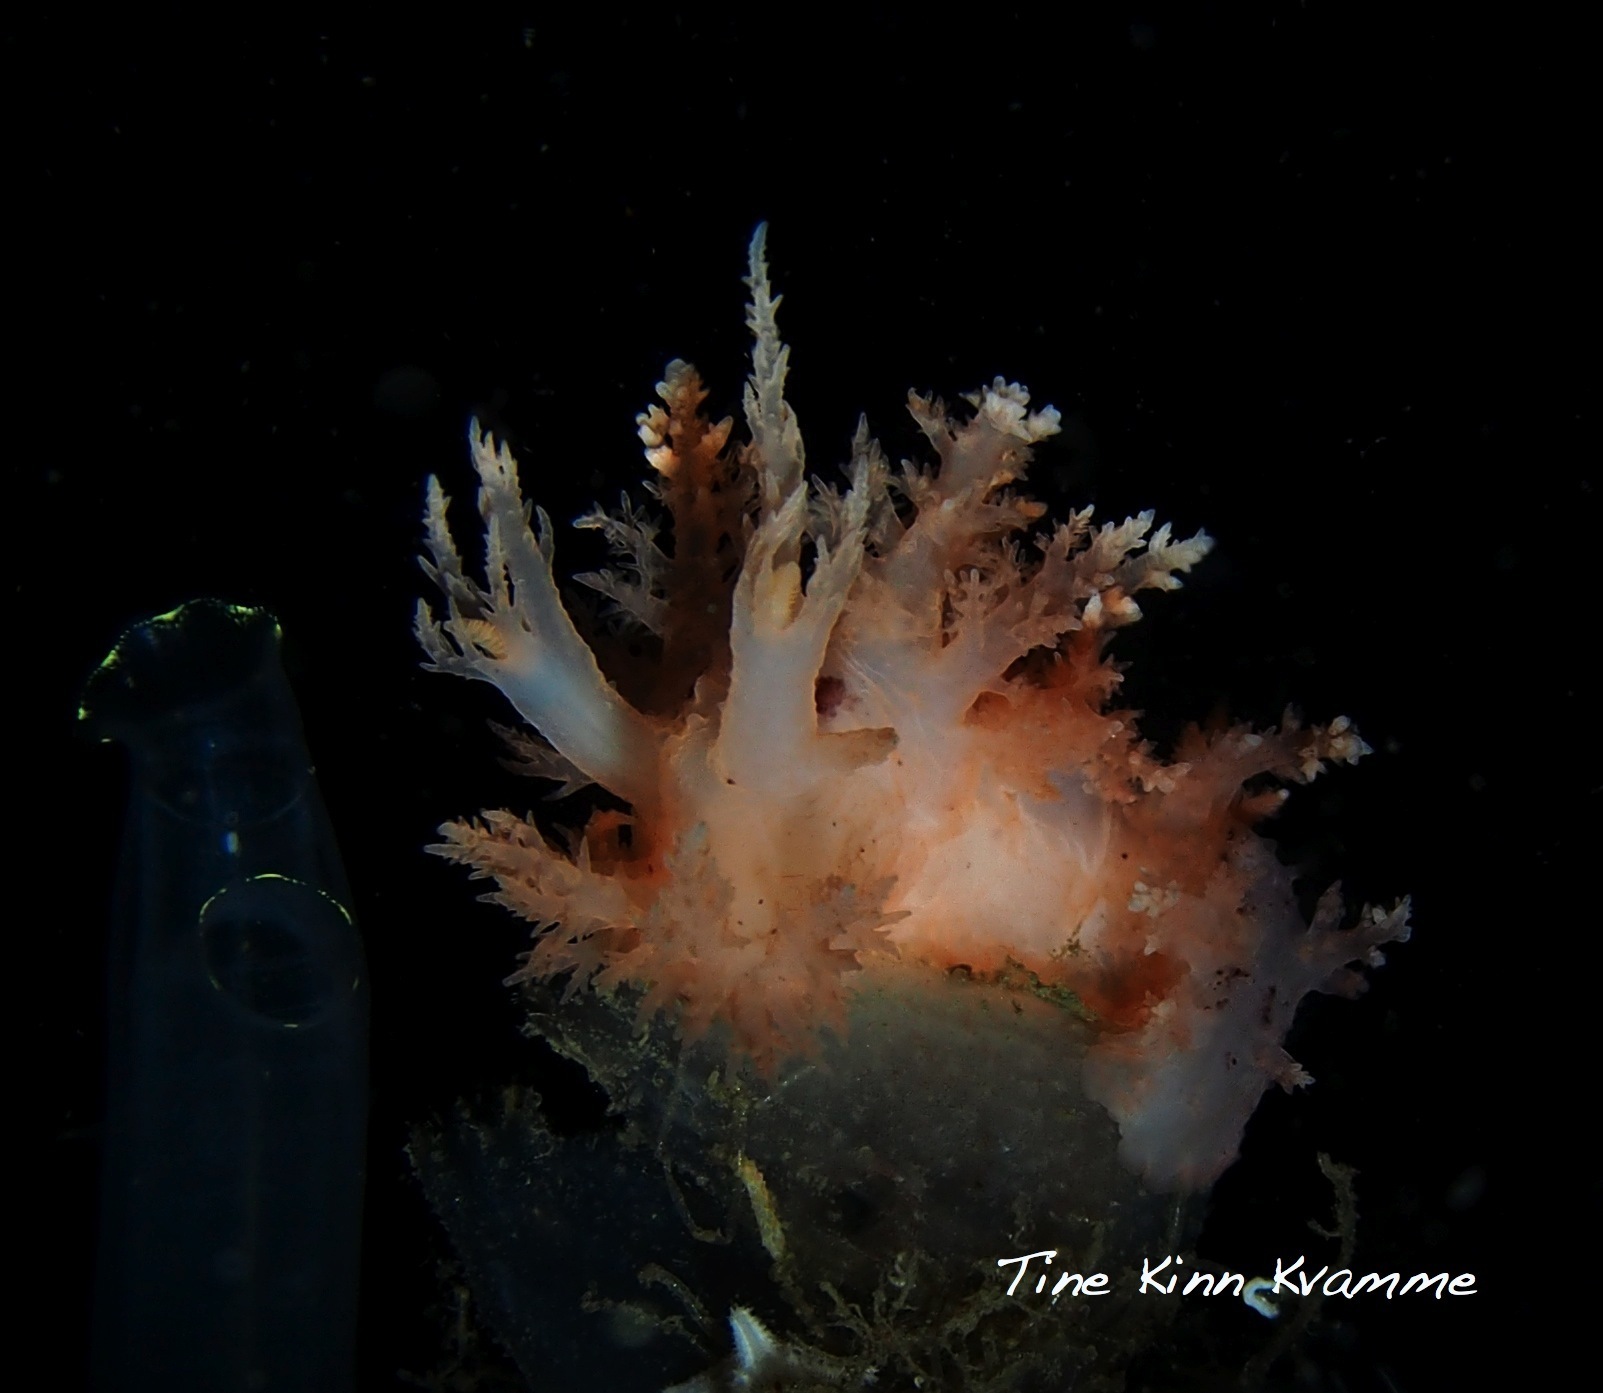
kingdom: Animalia
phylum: Mollusca
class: Gastropoda
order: Nudibranchia
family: Dendronotidae
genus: Dendronotus
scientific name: Dendronotus frondosus
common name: Bushy-backed nudibranch
